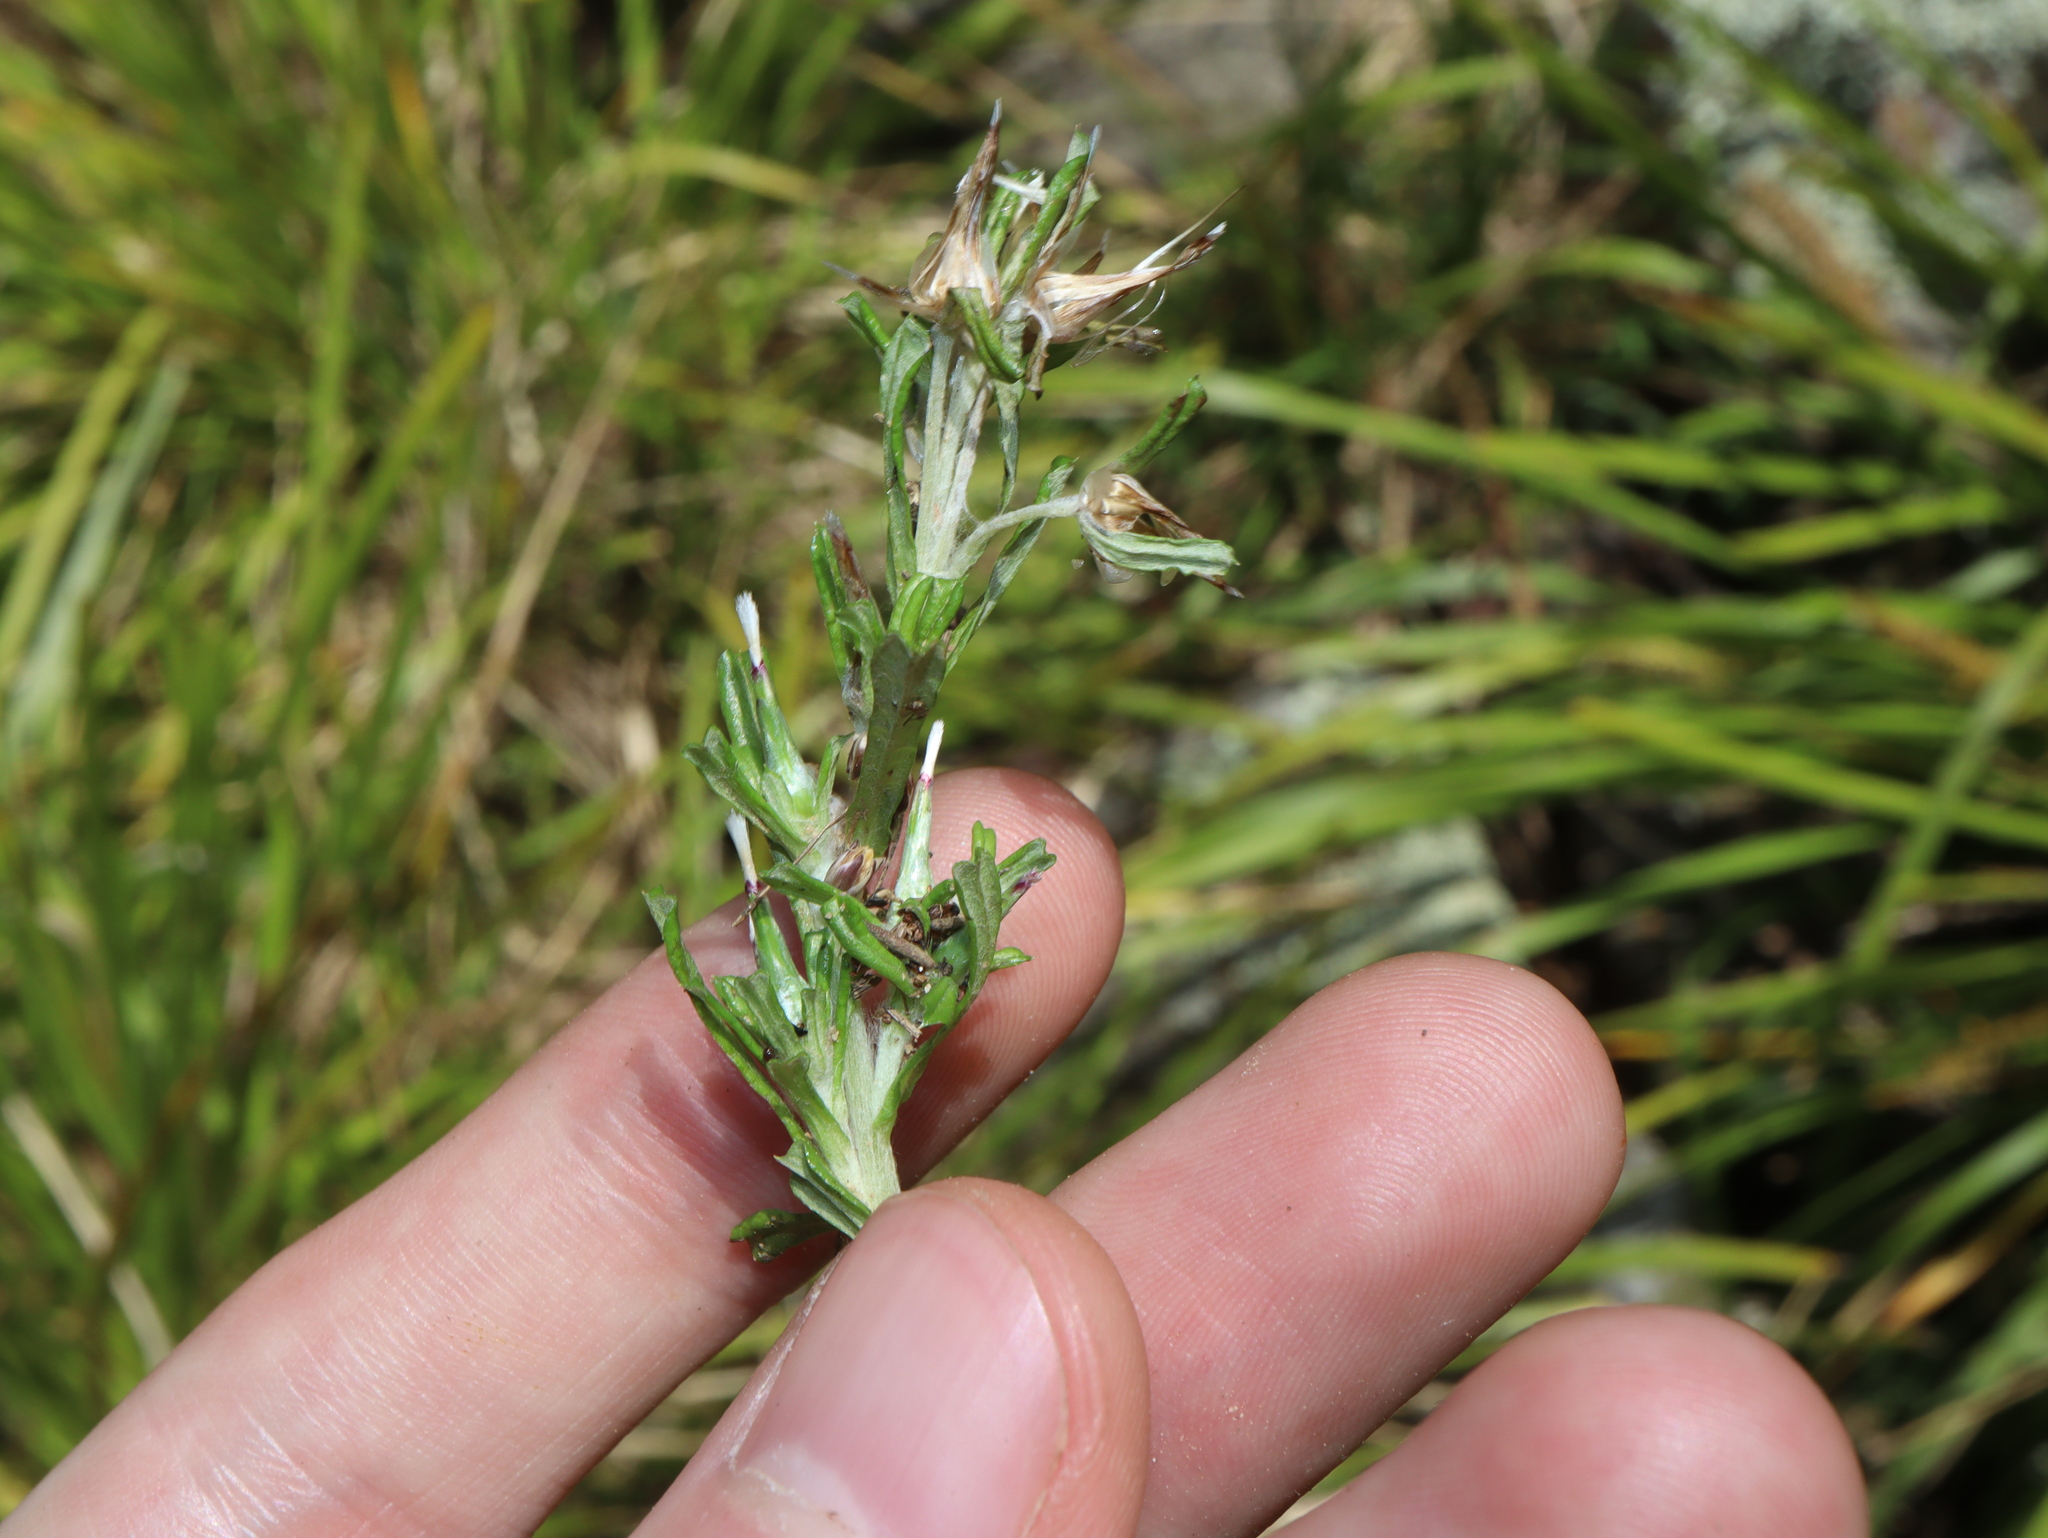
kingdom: Plantae
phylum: Tracheophyta
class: Magnoliopsida
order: Asterales
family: Asteraceae
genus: Facelis
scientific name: Facelis retusa
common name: Annual trampweed
